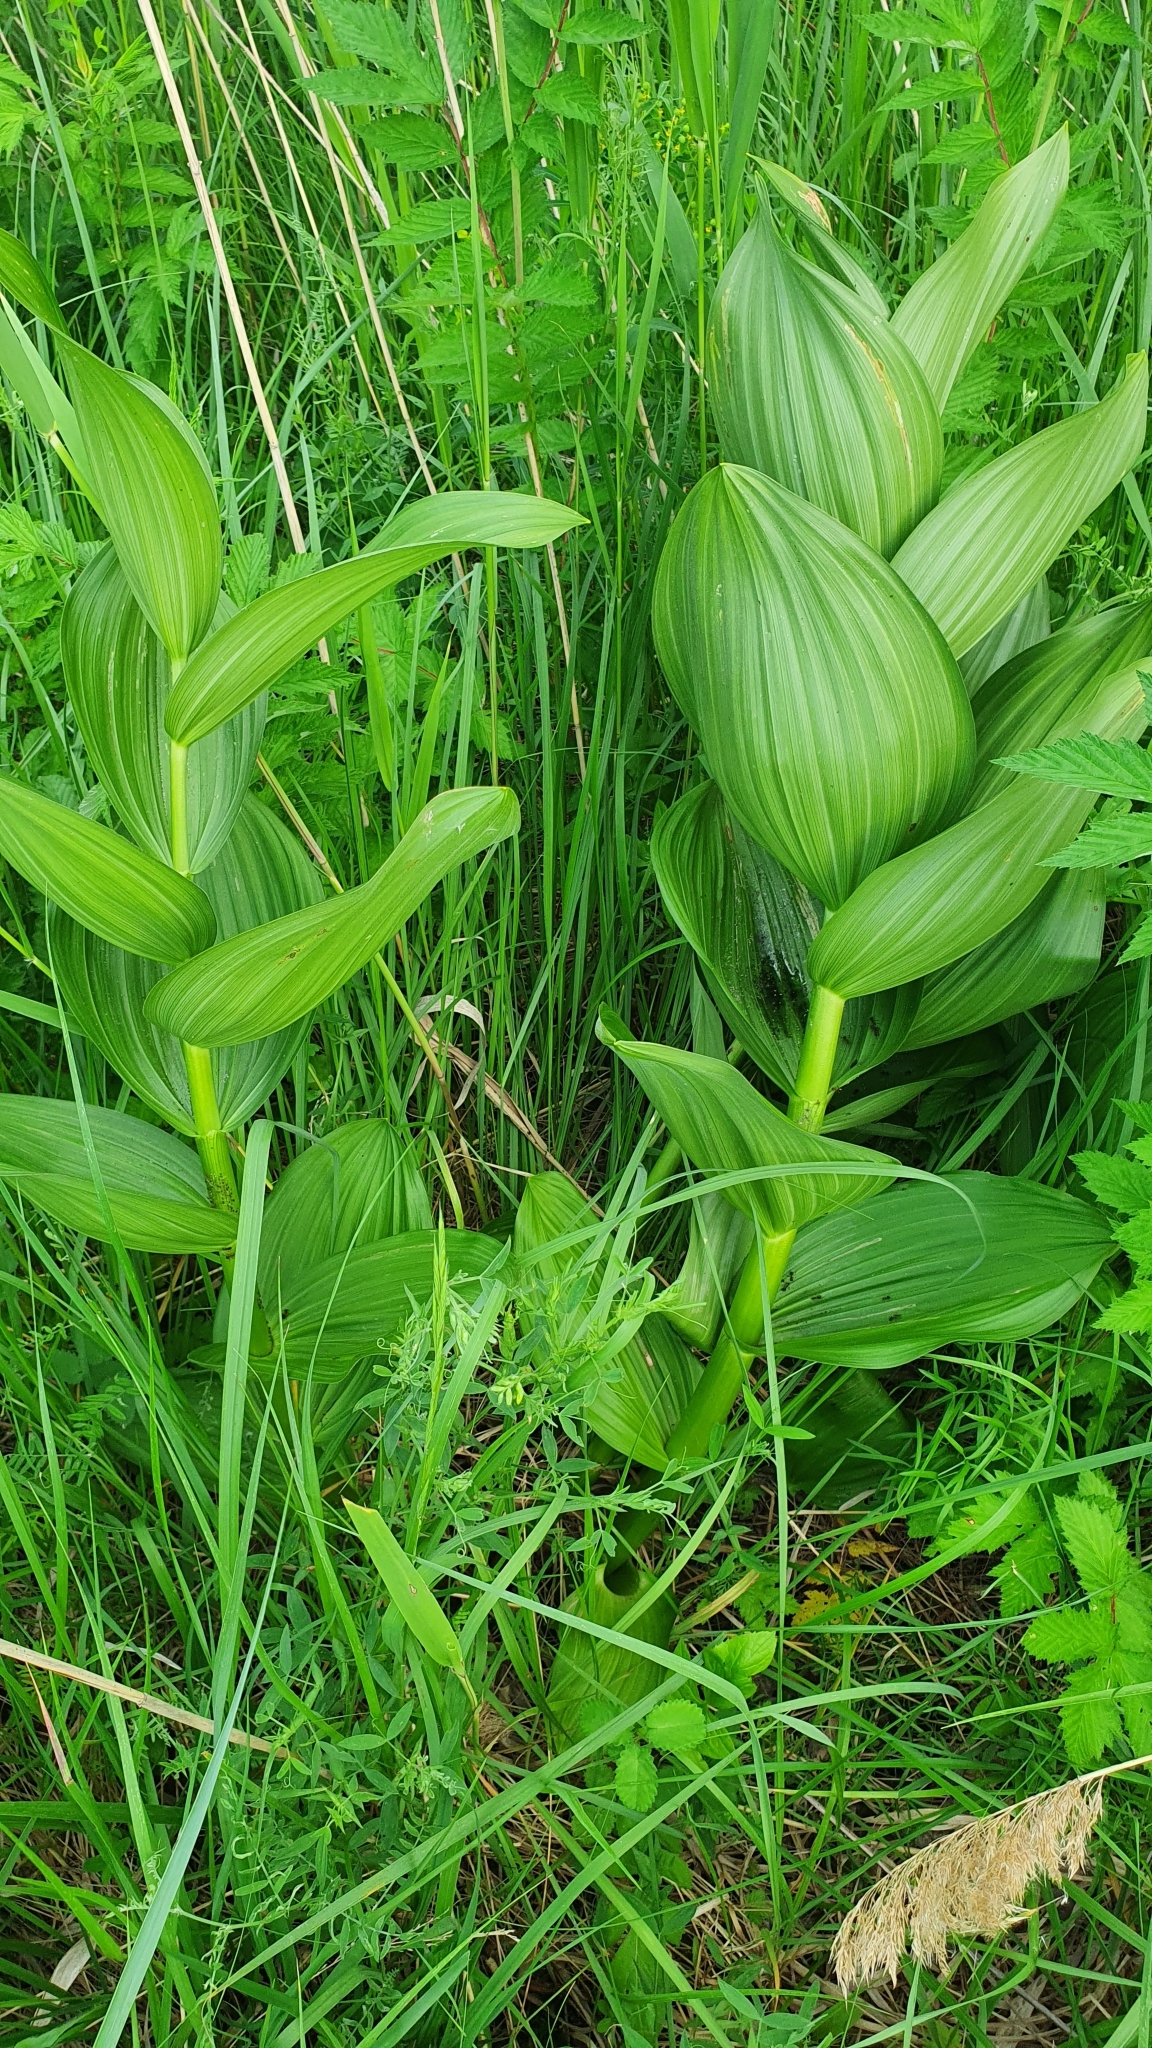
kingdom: Plantae
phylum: Tracheophyta
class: Liliopsida
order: Liliales
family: Melanthiaceae
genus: Veratrum
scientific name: Veratrum lobelianum
